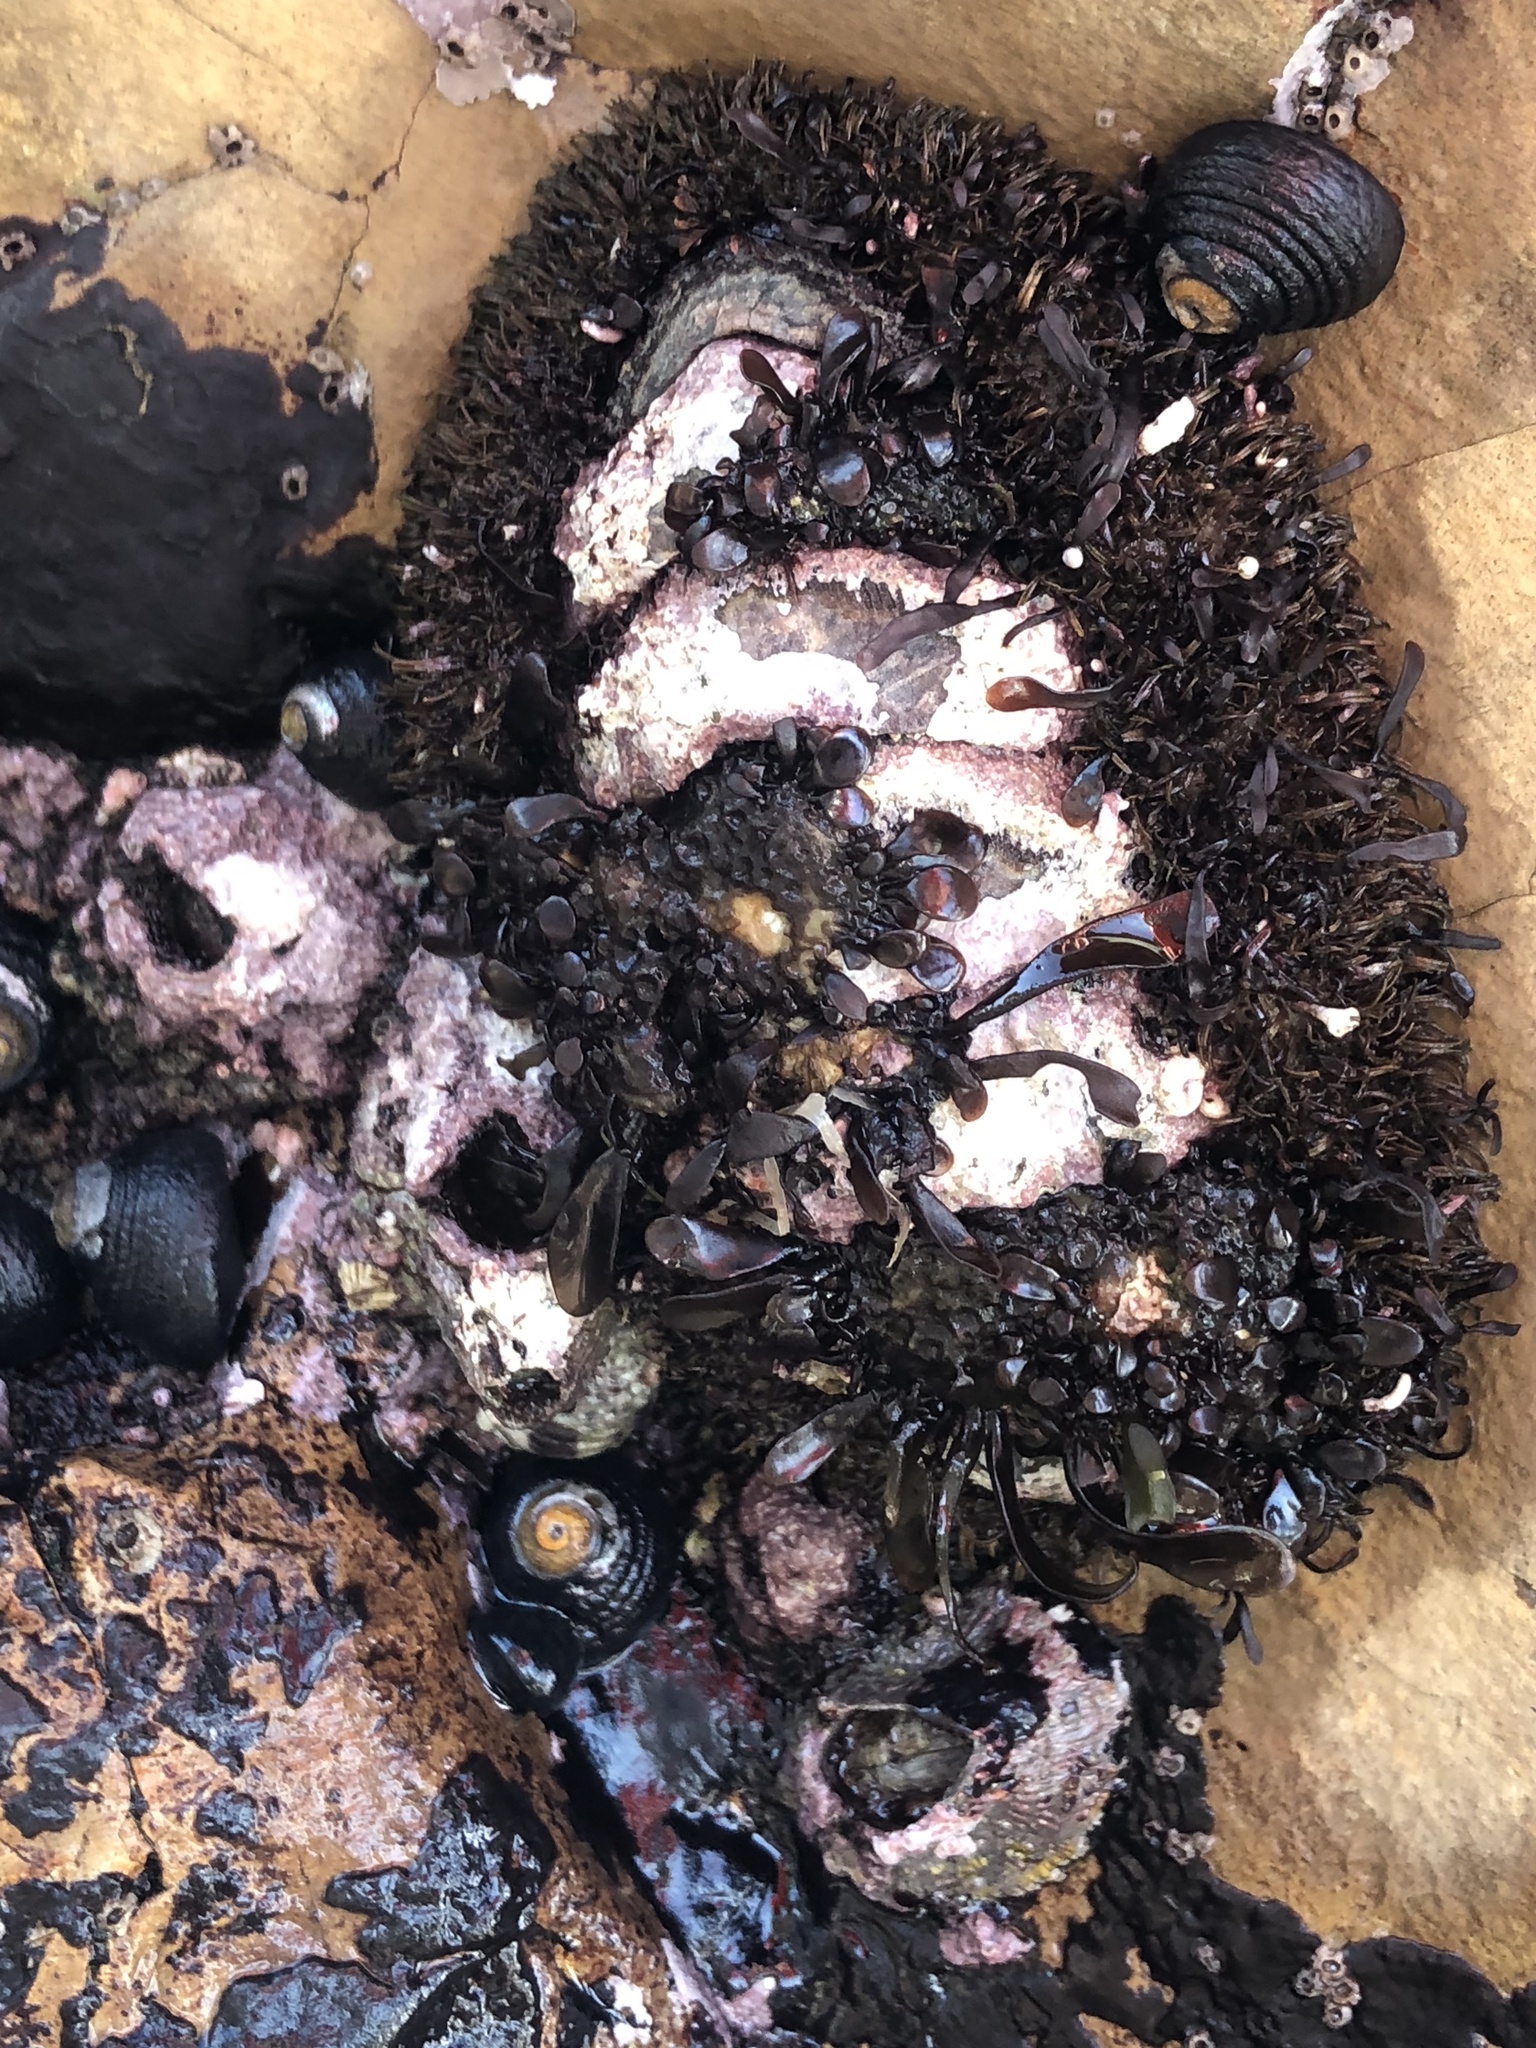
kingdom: Animalia
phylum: Mollusca
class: Polyplacophora
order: Chitonida
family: Mopaliidae
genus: Mopalia
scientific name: Mopalia muscosa
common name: Mossy chiton
